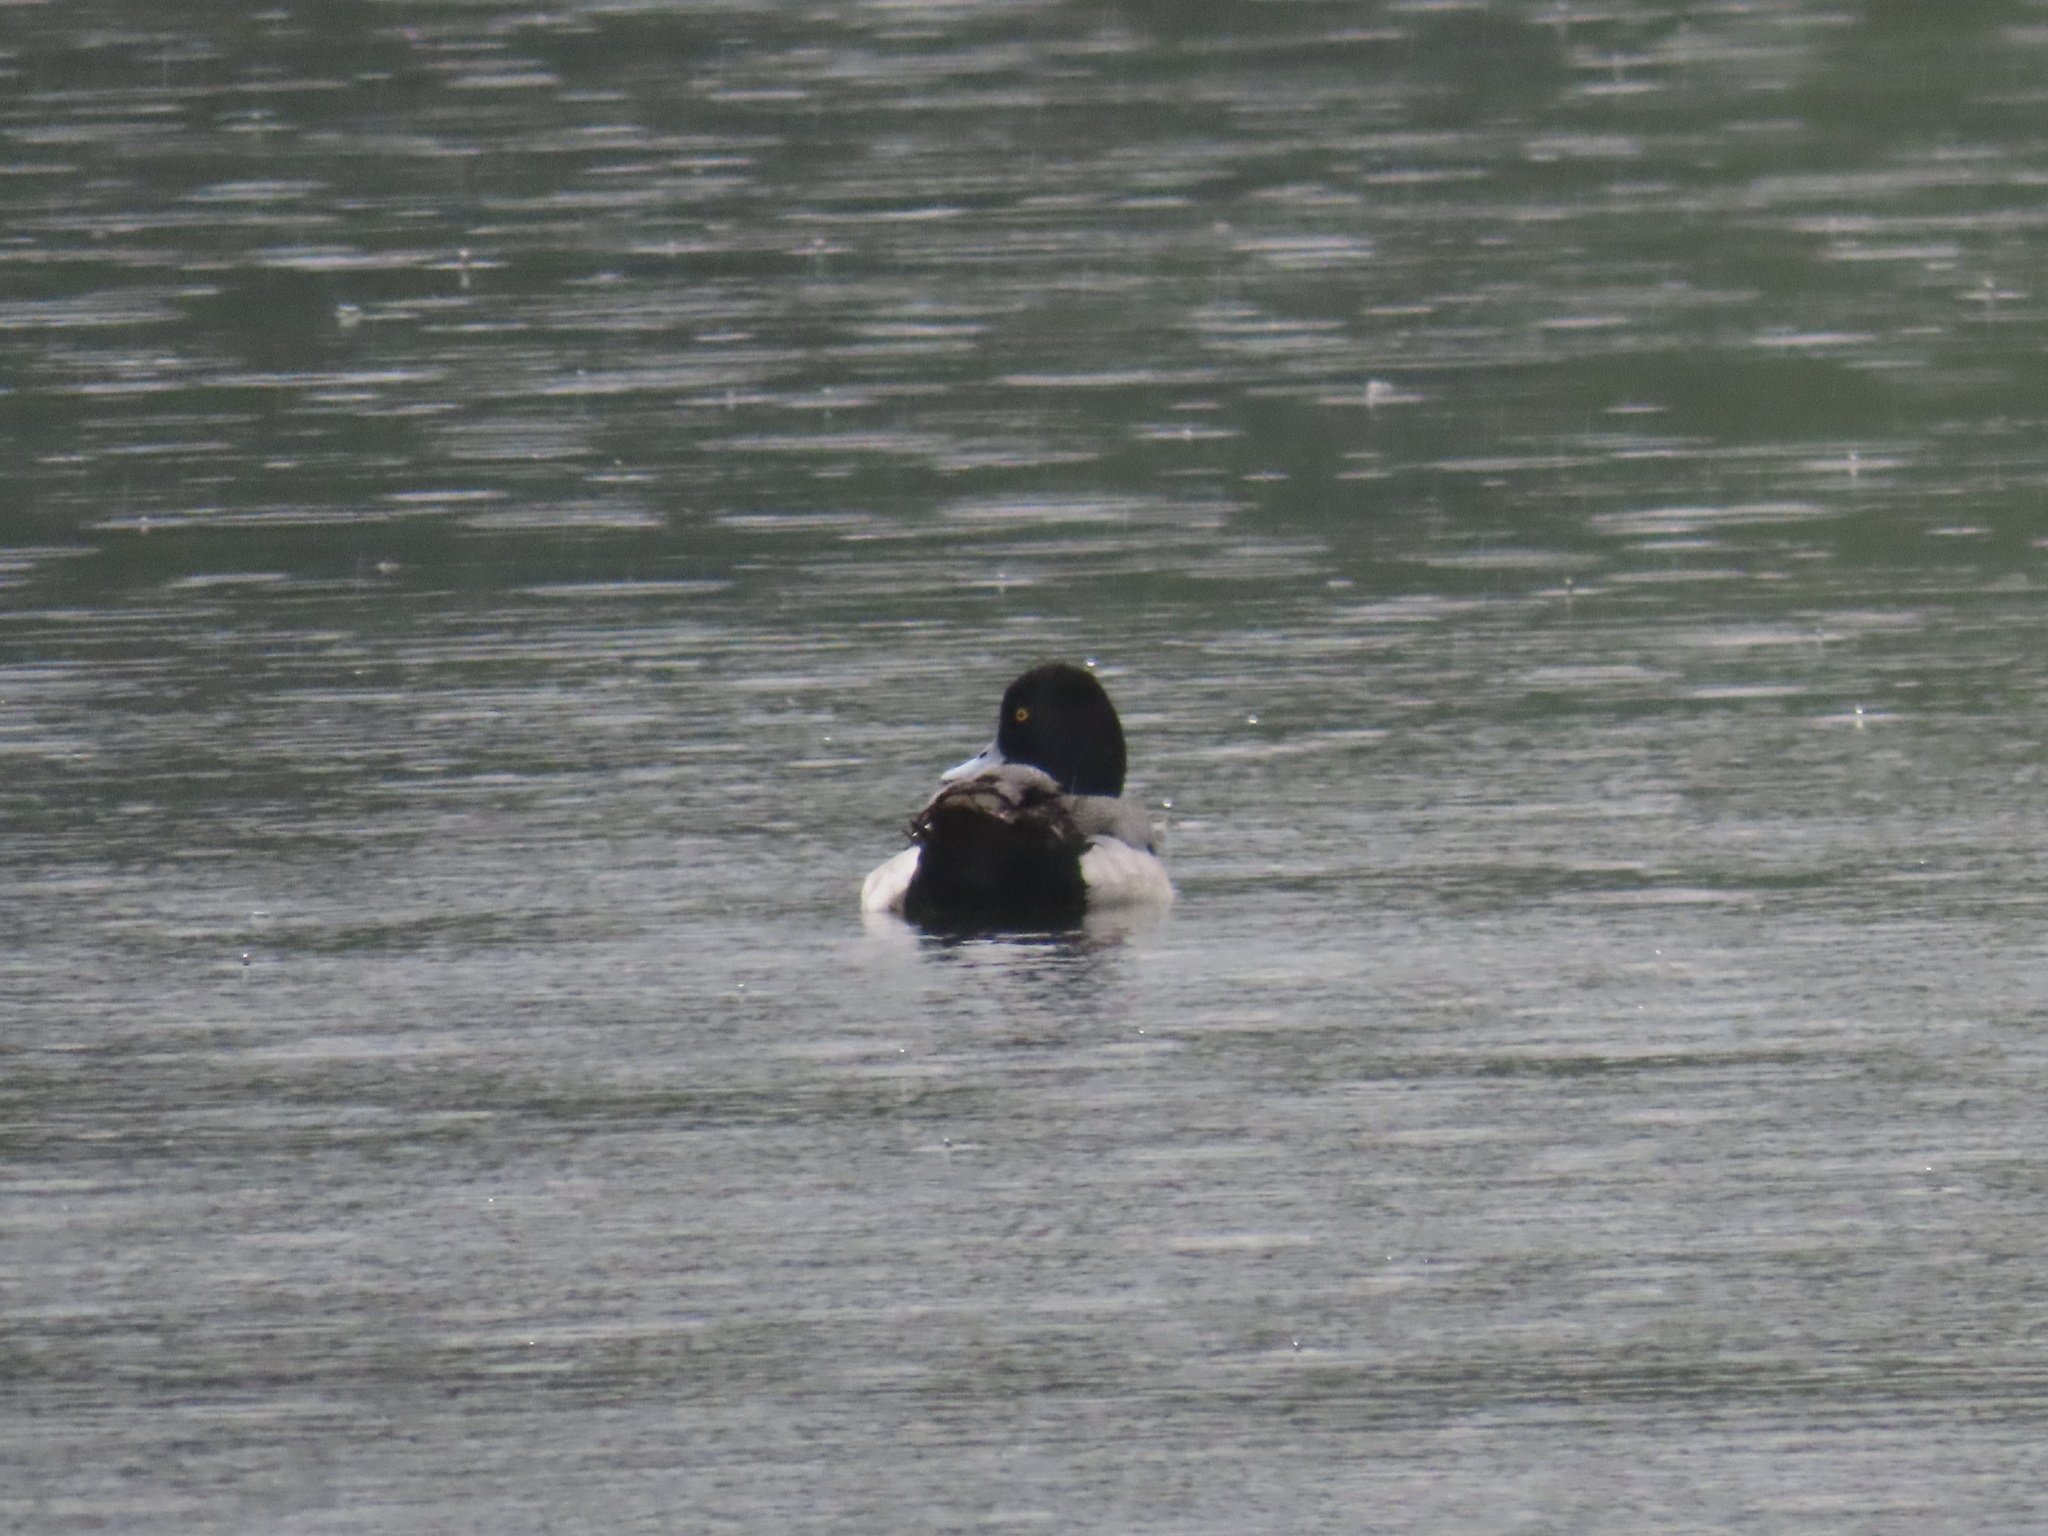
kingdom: Animalia
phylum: Chordata
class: Aves
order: Anseriformes
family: Anatidae
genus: Aythya
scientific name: Aythya affinis
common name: Lesser scaup
